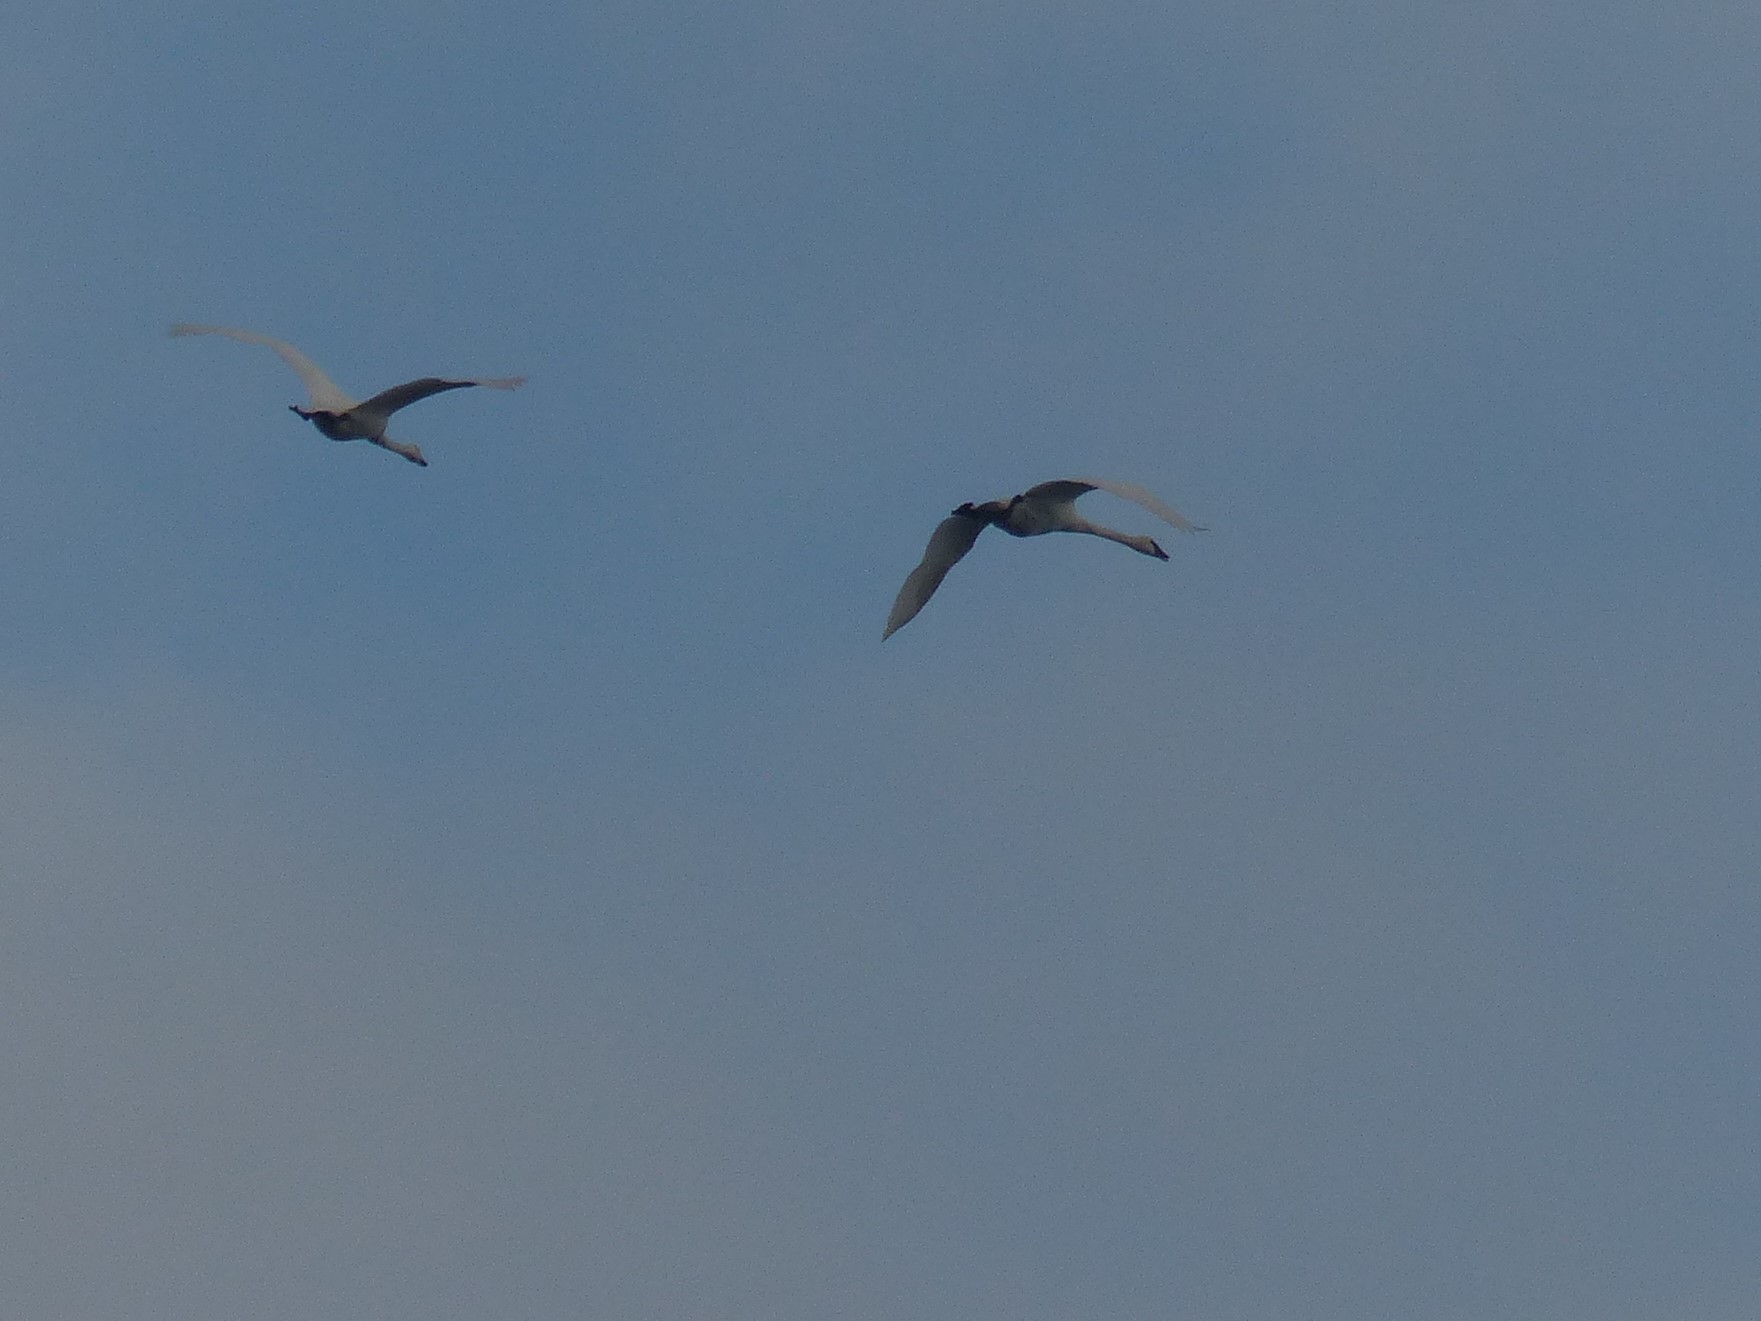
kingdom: Animalia
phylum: Chordata
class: Aves
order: Anseriformes
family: Anatidae
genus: Cygnus
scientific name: Cygnus buccinator
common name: Trumpeter swan
